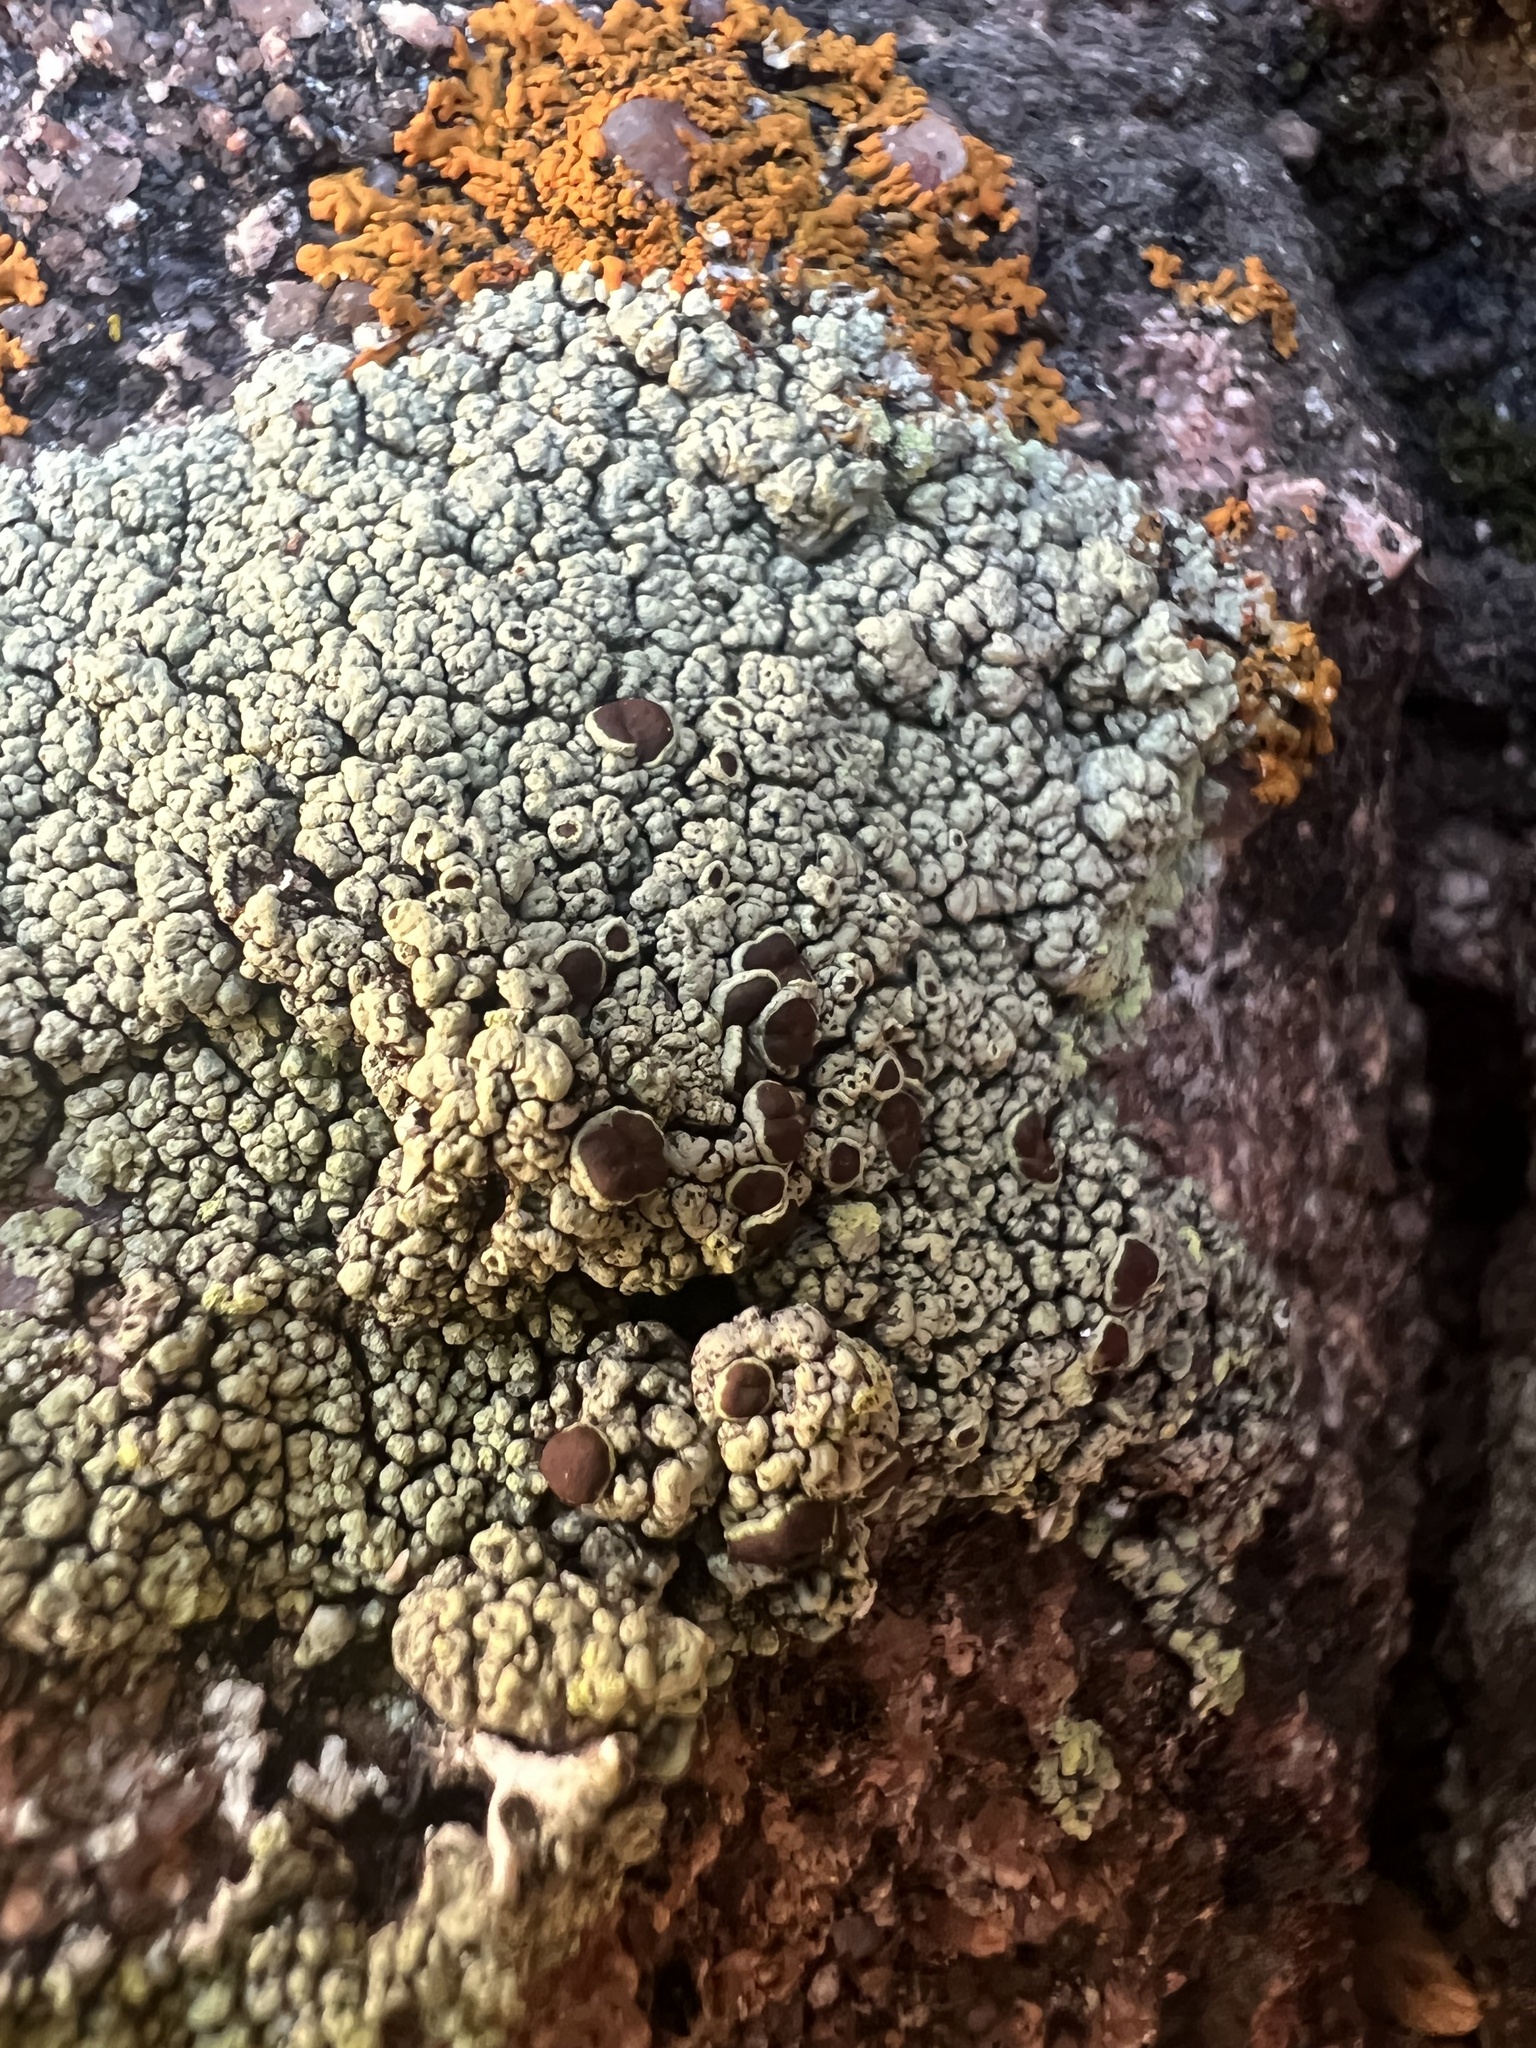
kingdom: Fungi
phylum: Ascomycota
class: Lecanoromycetes
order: Lecanorales
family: Lecanoraceae
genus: Lecanora
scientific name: Lecanora argopholis
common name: Varying rim lichen
